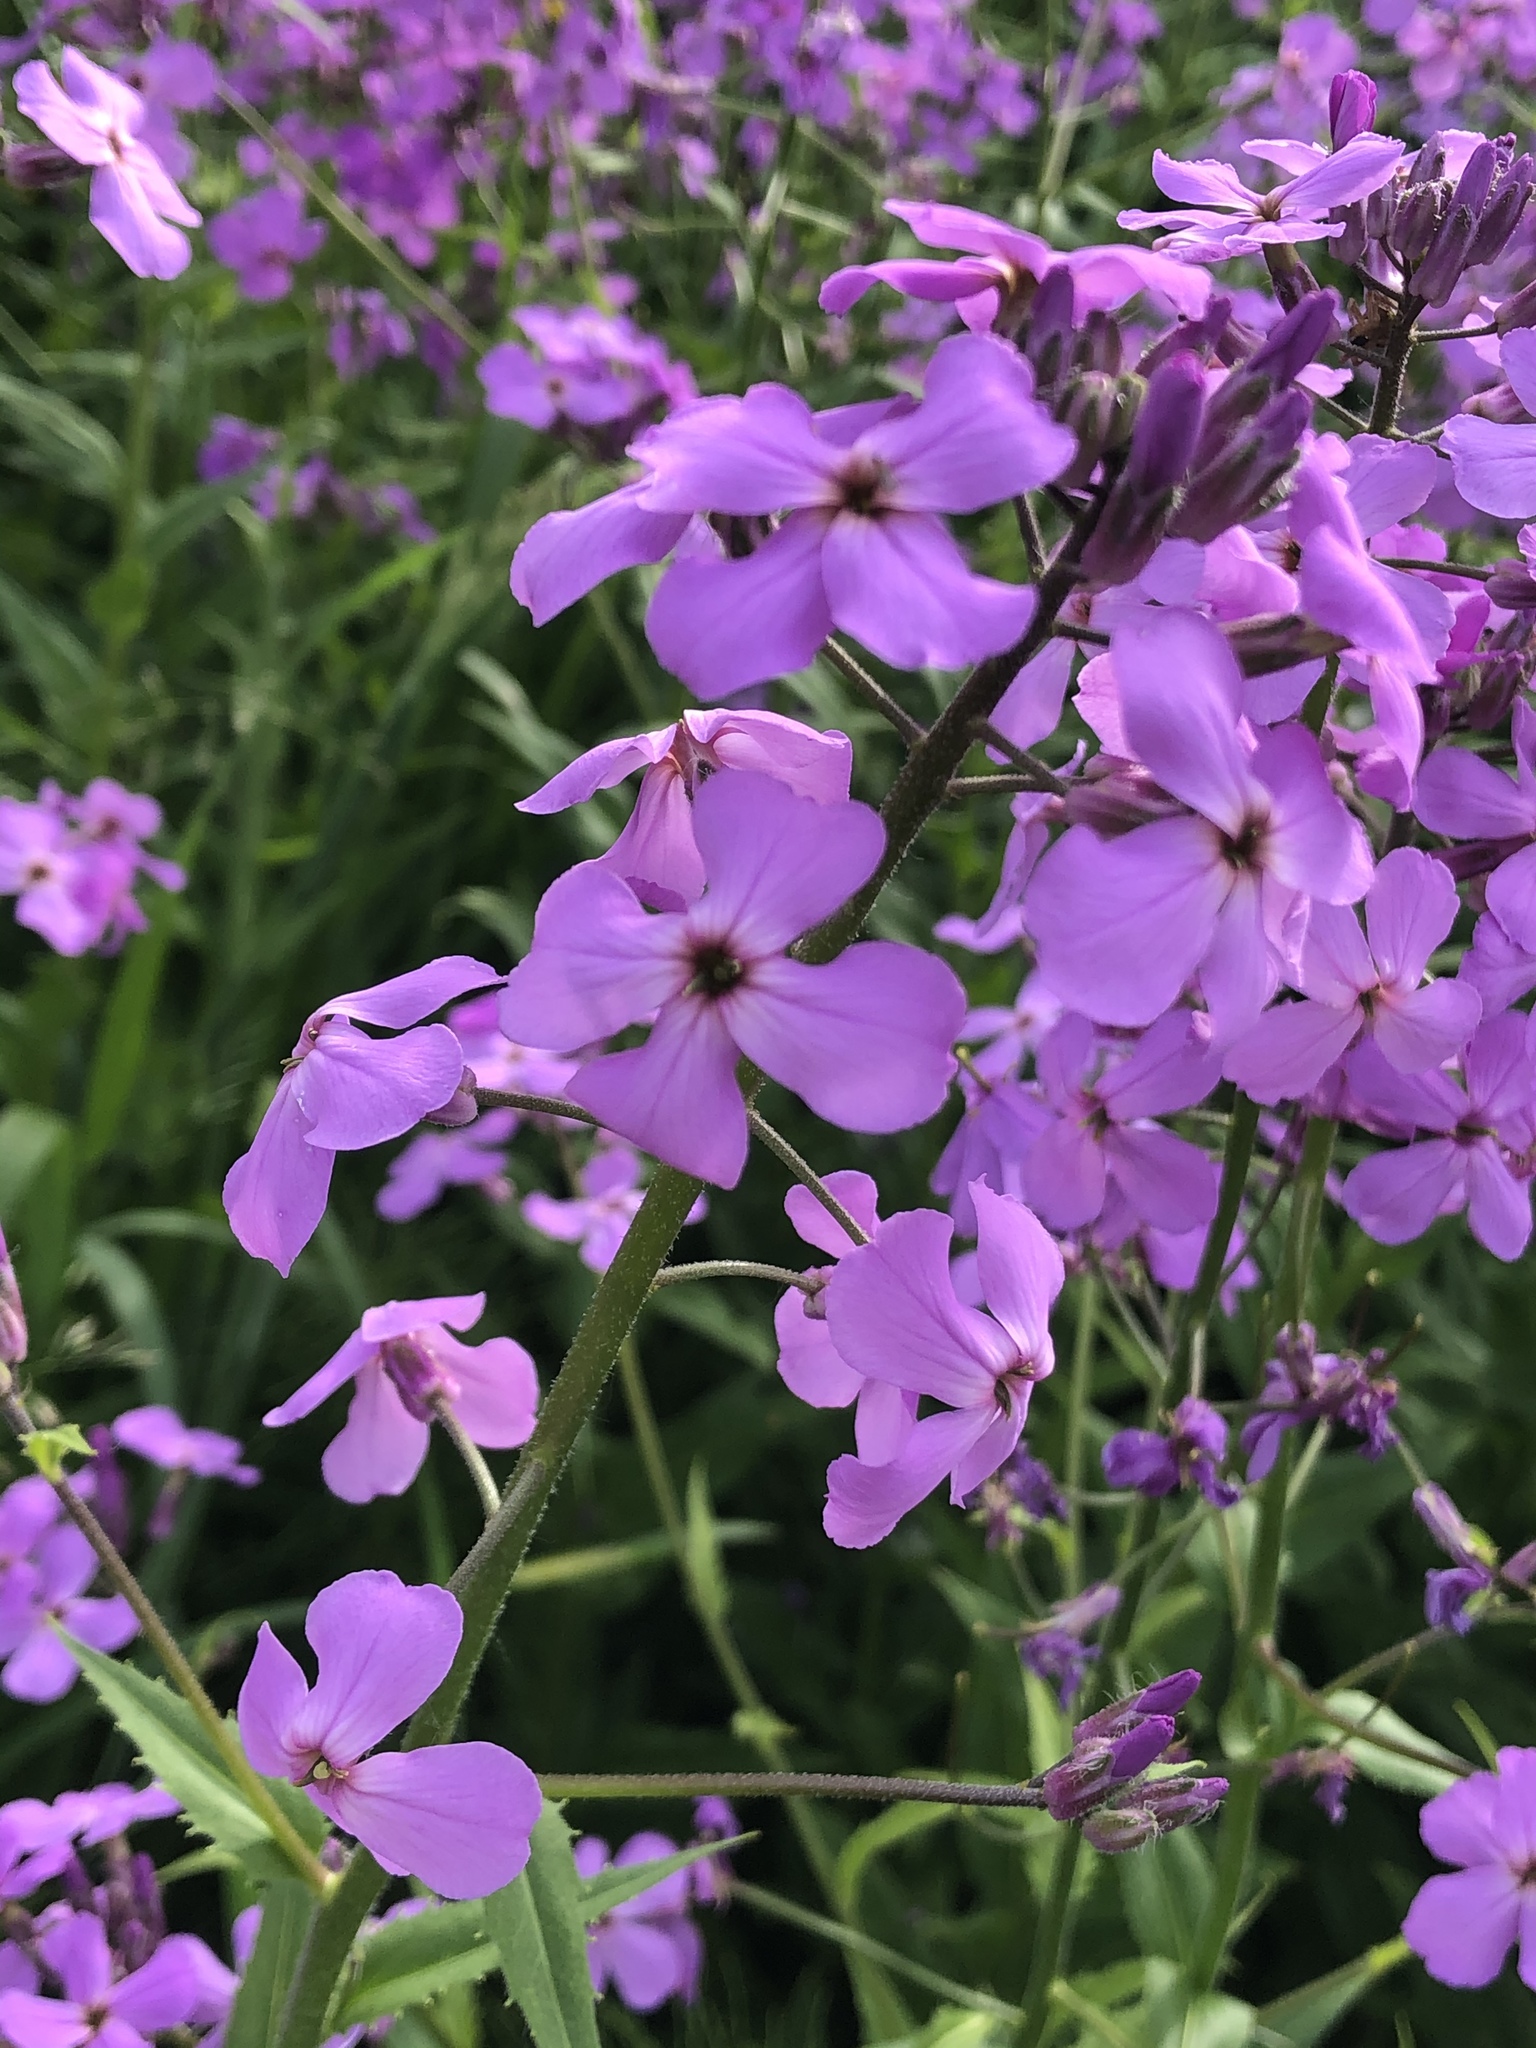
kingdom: Plantae
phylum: Tracheophyta
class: Magnoliopsida
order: Brassicales
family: Brassicaceae
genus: Hesperis
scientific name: Hesperis matronalis
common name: Dame's-violet
